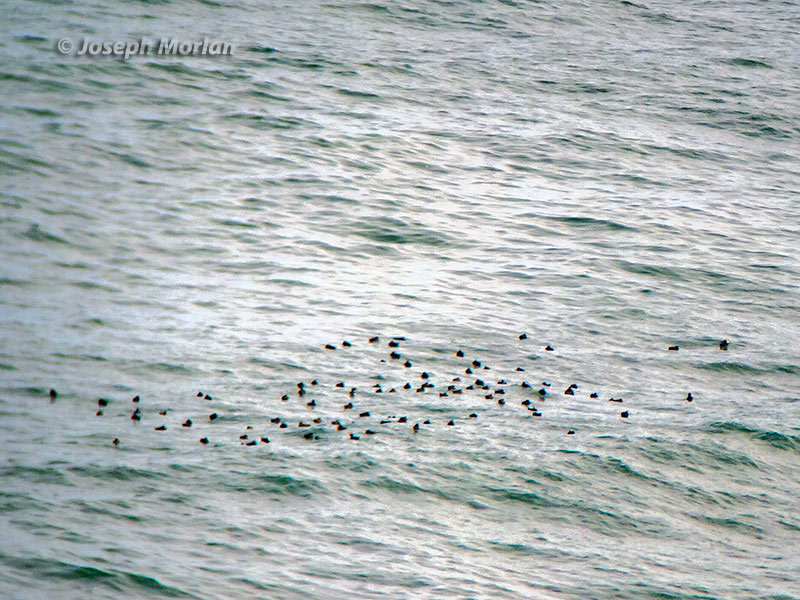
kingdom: Animalia
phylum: Chordata
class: Aves
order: Anseriformes
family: Anatidae
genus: Melanitta
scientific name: Melanitta perspicillata
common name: Surf scoter
